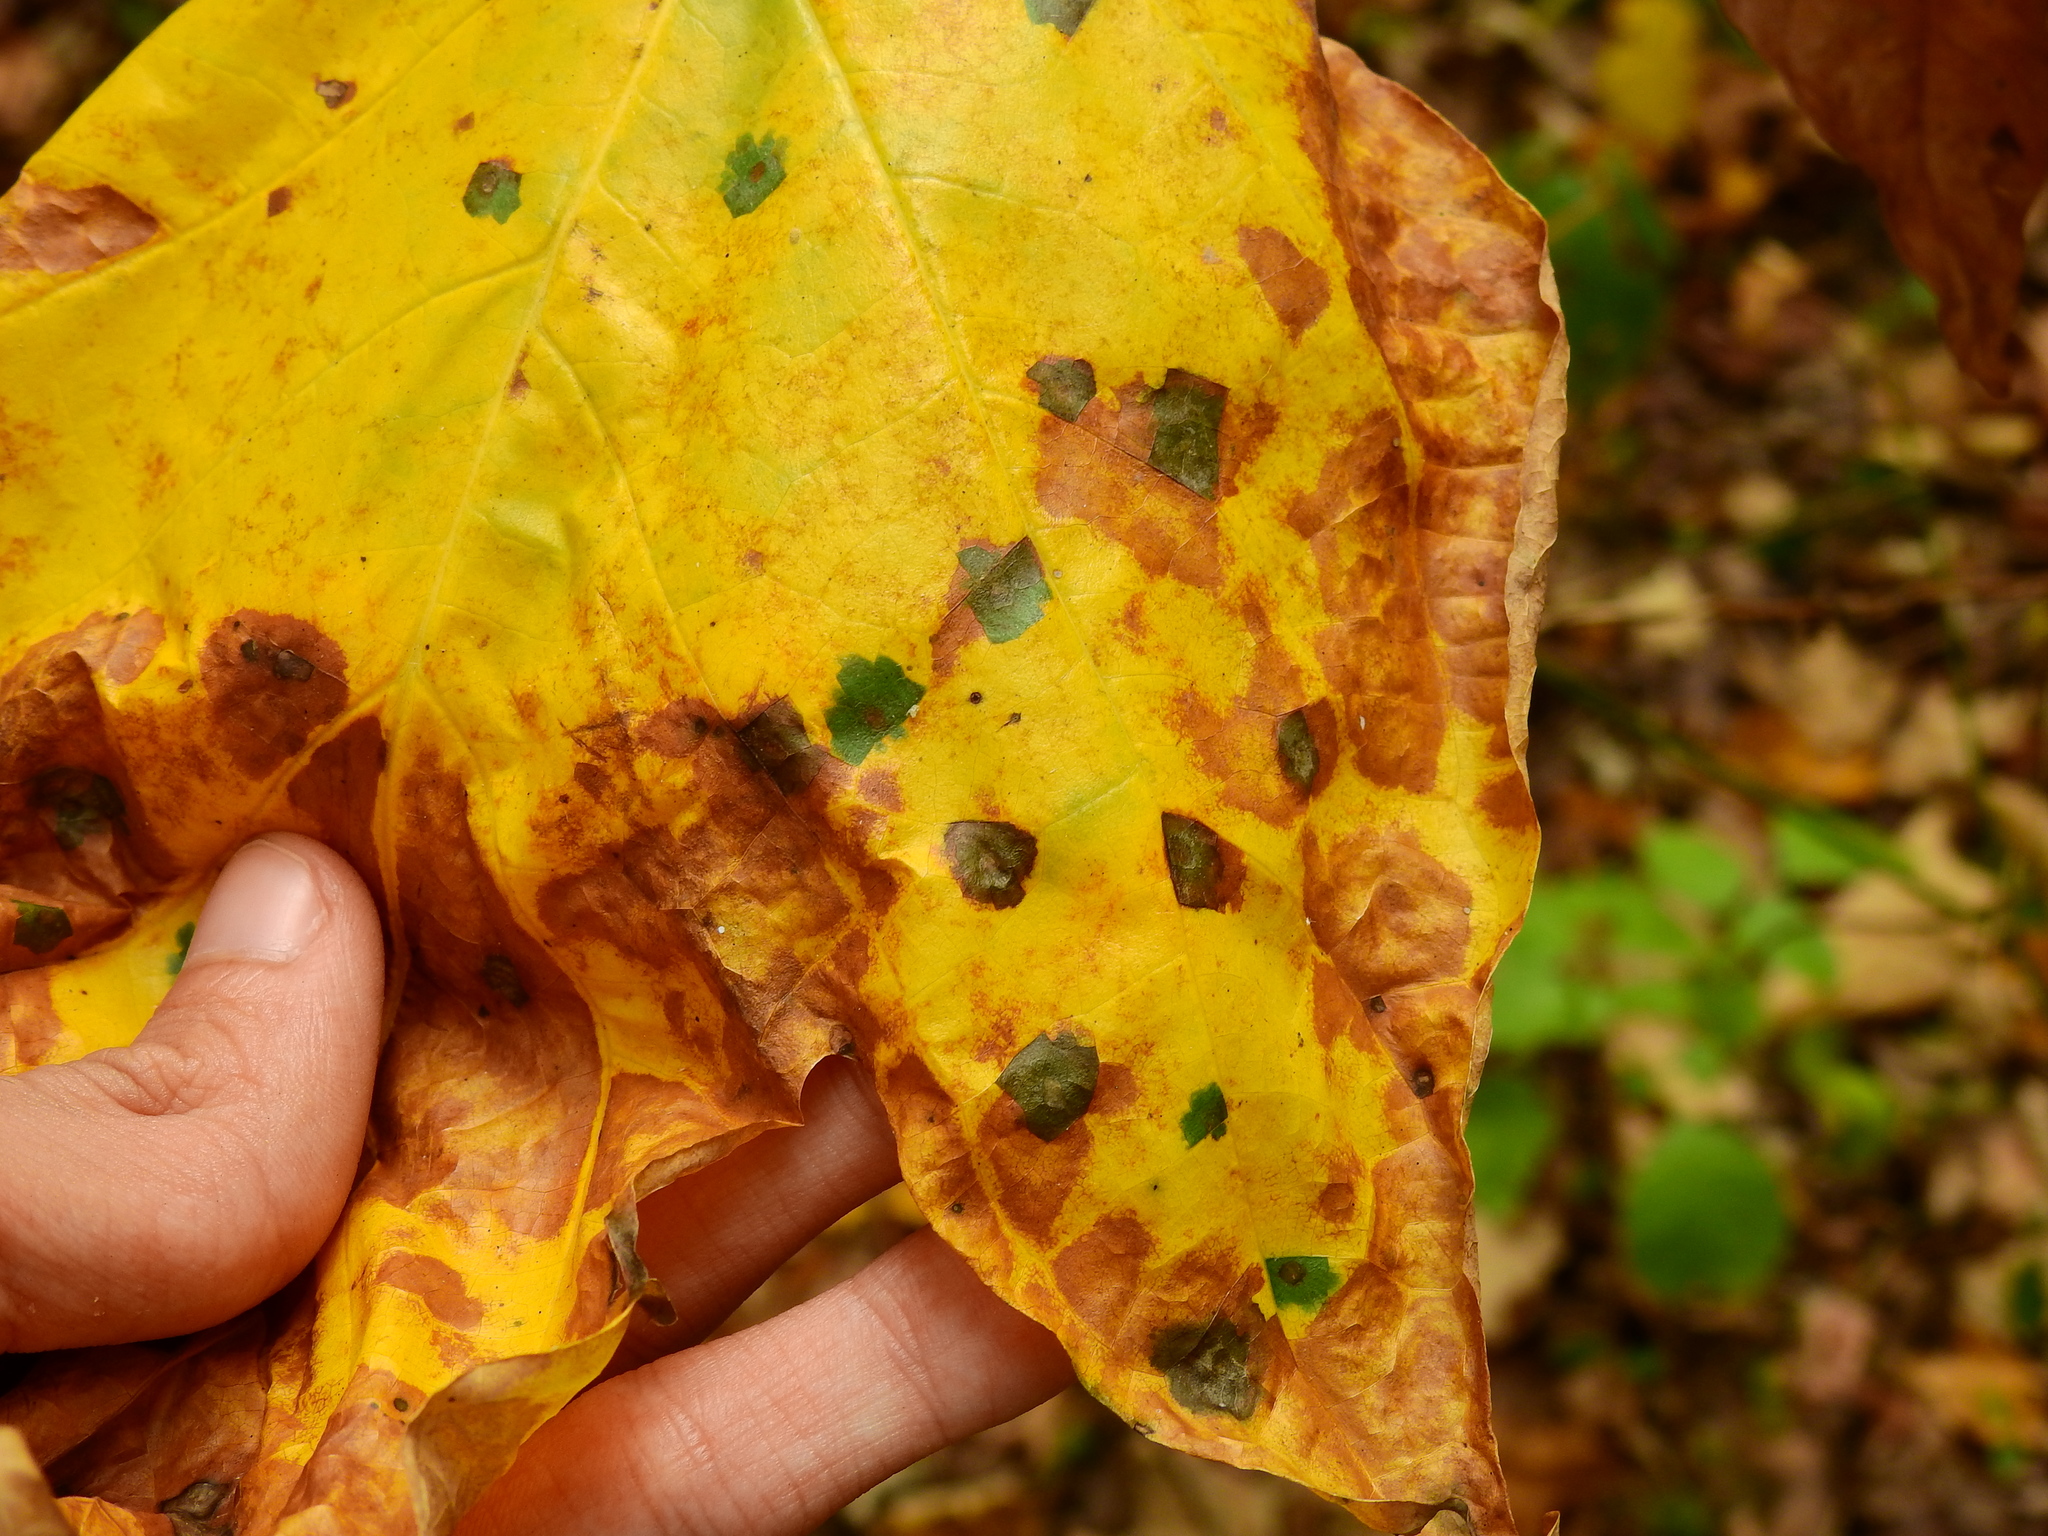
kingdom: Animalia
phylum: Arthropoda
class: Insecta
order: Diptera
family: Cecidomyiidae
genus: Resseliella
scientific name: Resseliella liriodendri
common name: Tulip tree leaf spot gall midge
